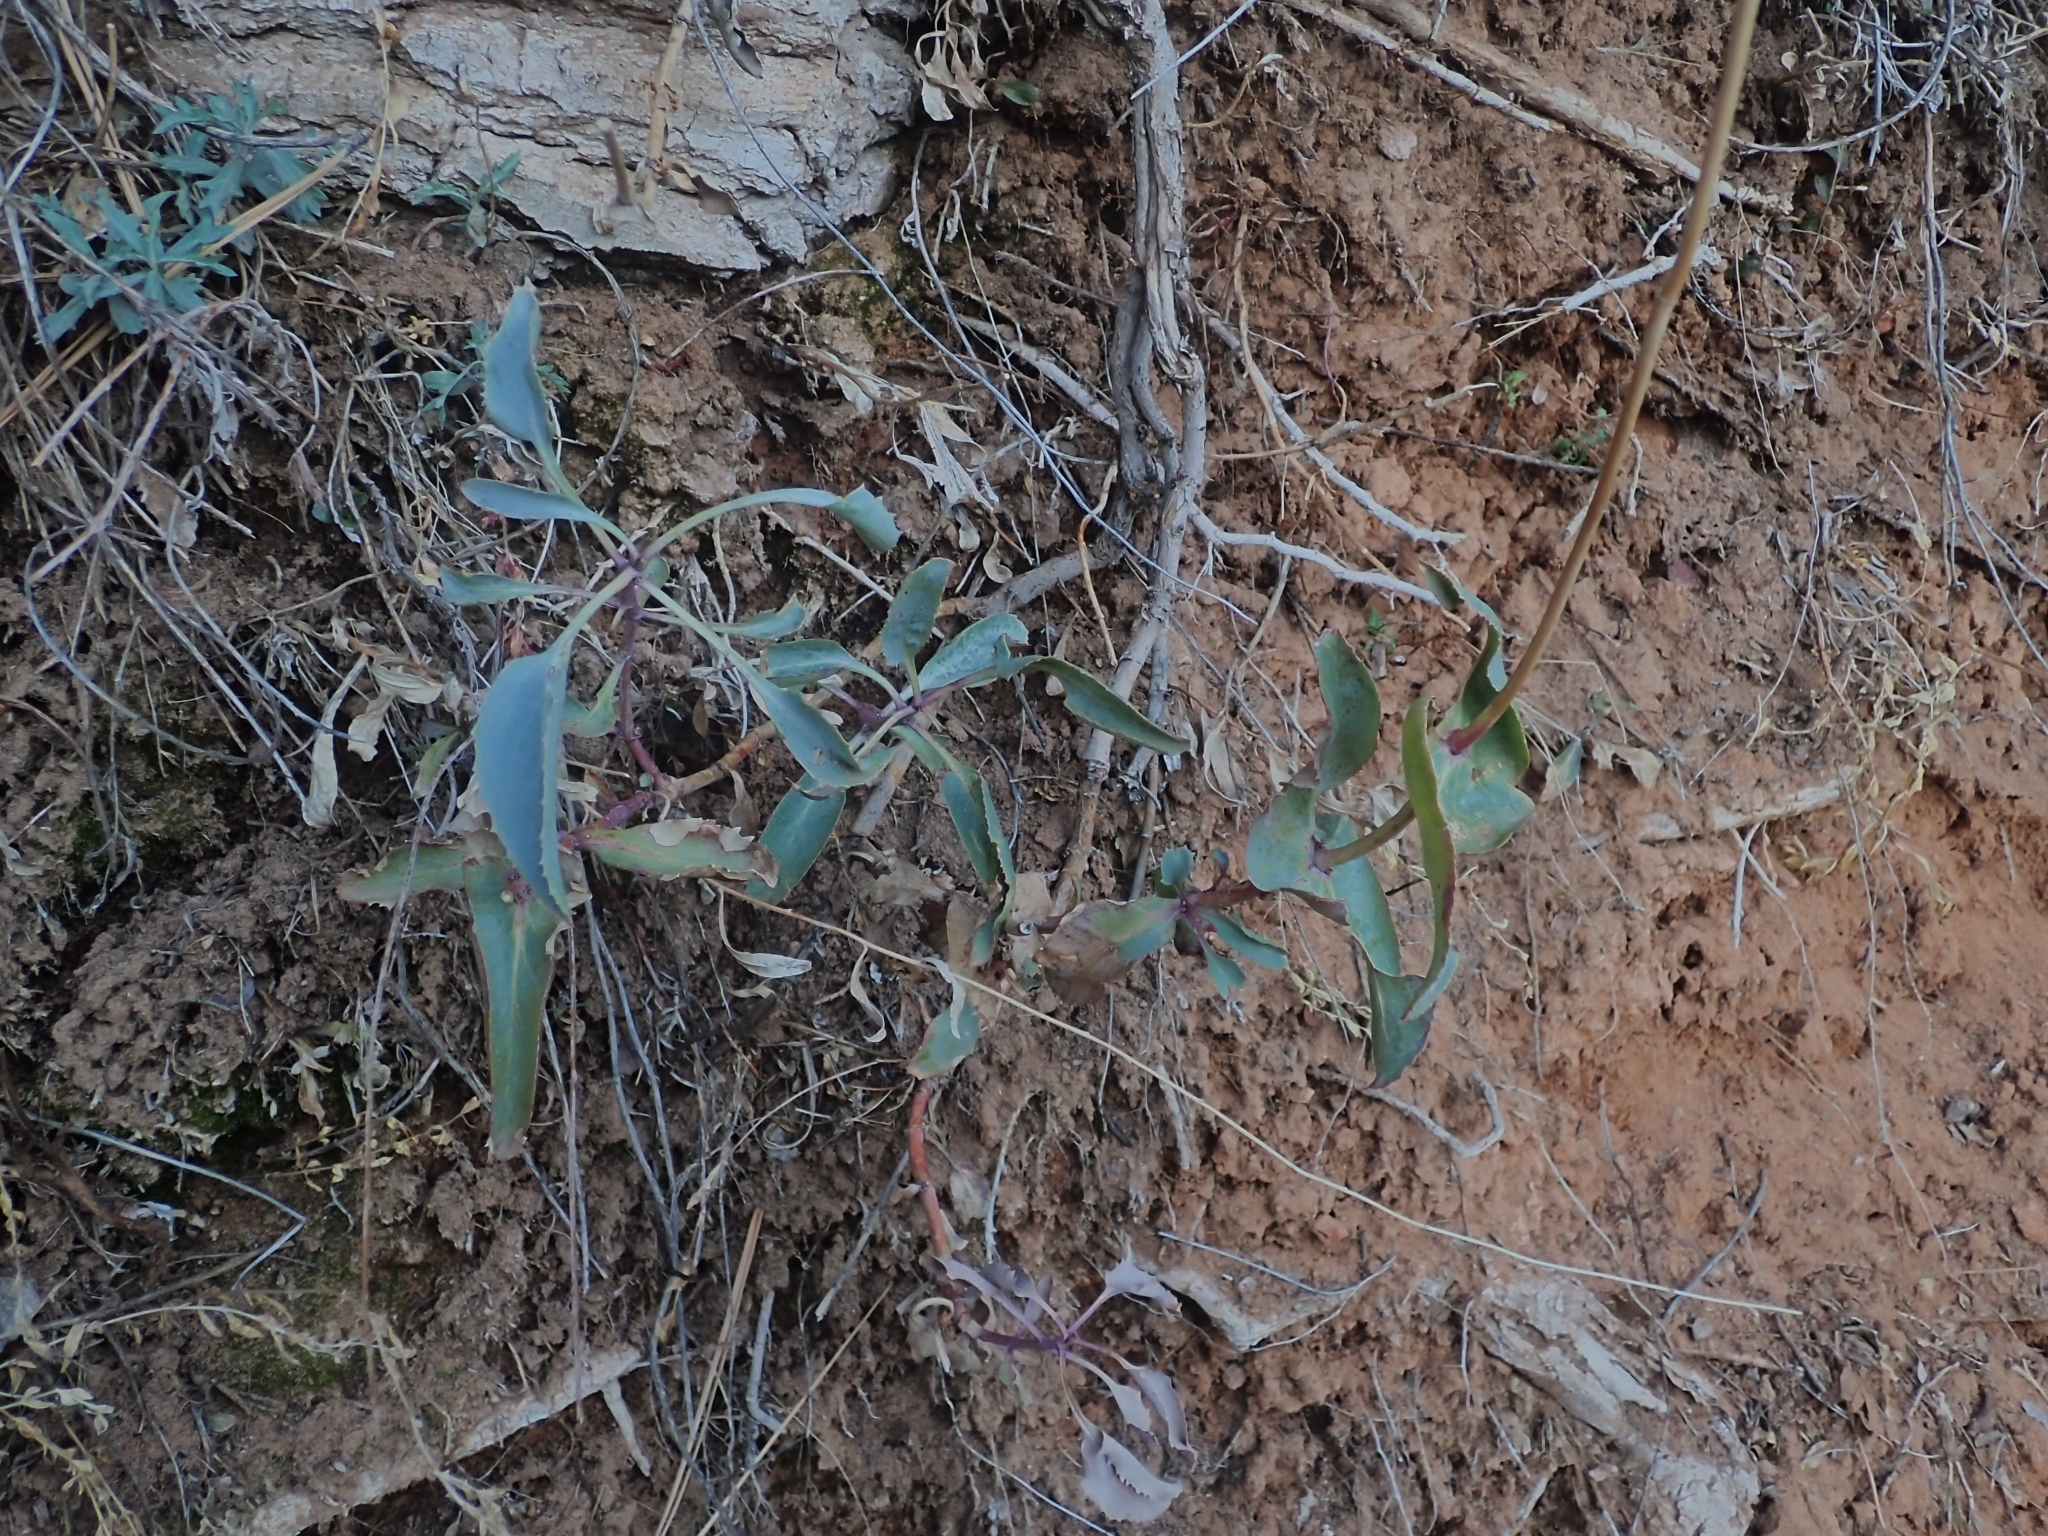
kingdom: Plantae
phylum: Tracheophyta
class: Magnoliopsida
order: Lamiales
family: Plantaginaceae
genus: Penstemon
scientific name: Penstemon palmeri
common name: Palmer penstemon
